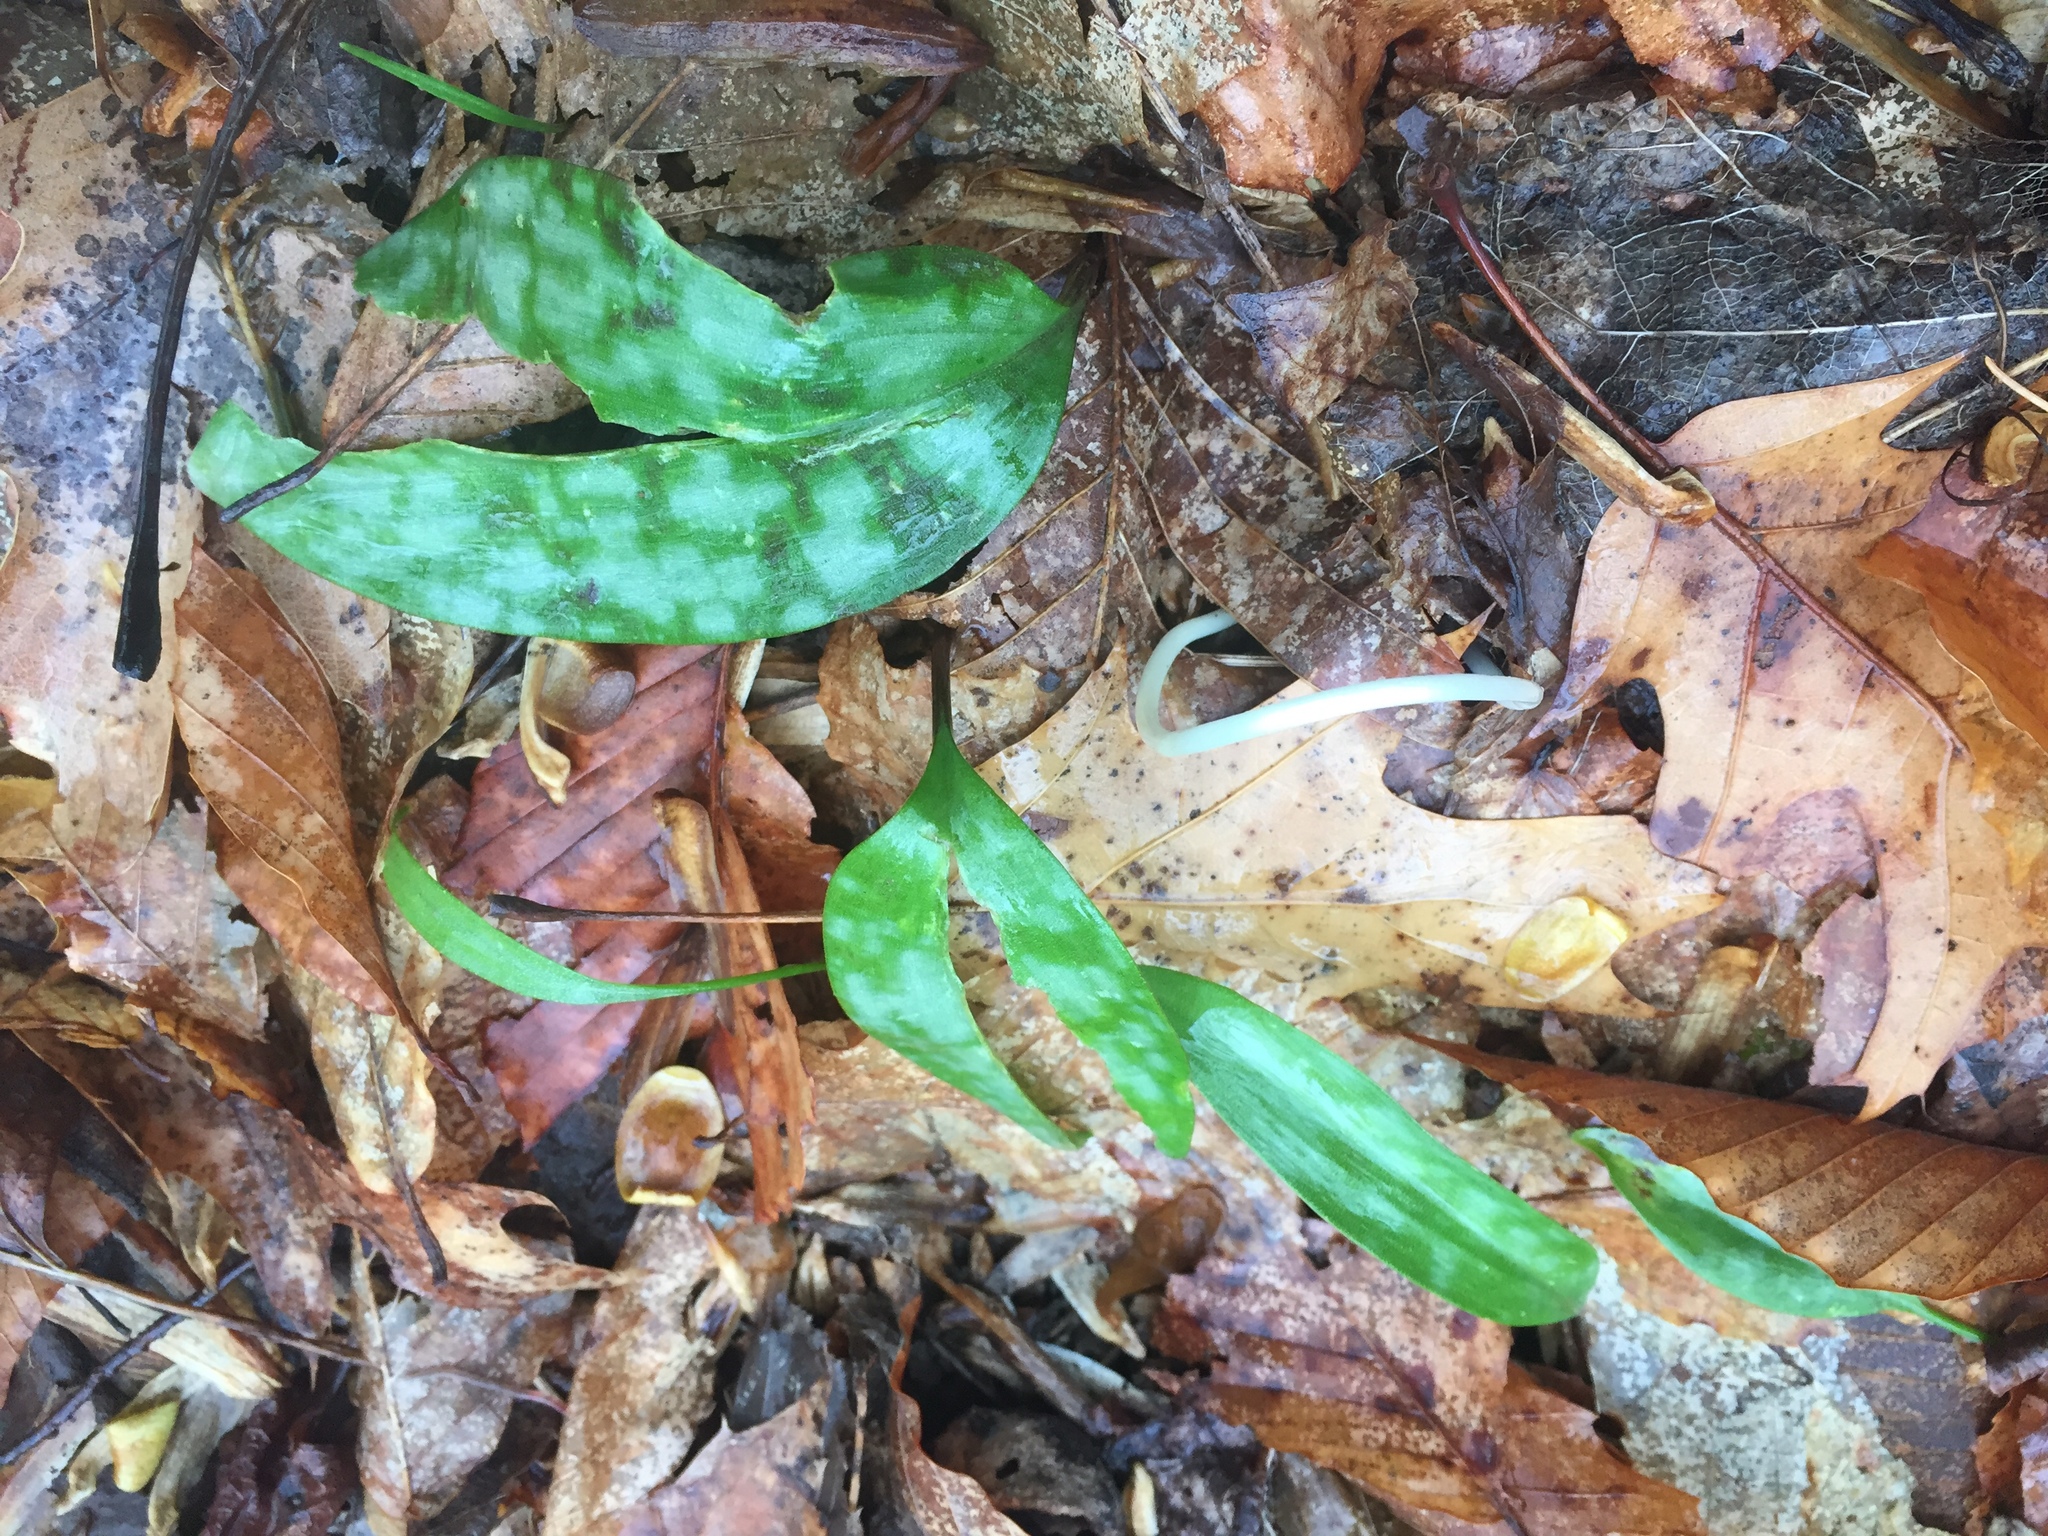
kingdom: Plantae
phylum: Tracheophyta
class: Liliopsida
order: Liliales
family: Liliaceae
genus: Erythronium
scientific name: Erythronium americanum
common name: Yellow adder's-tongue
